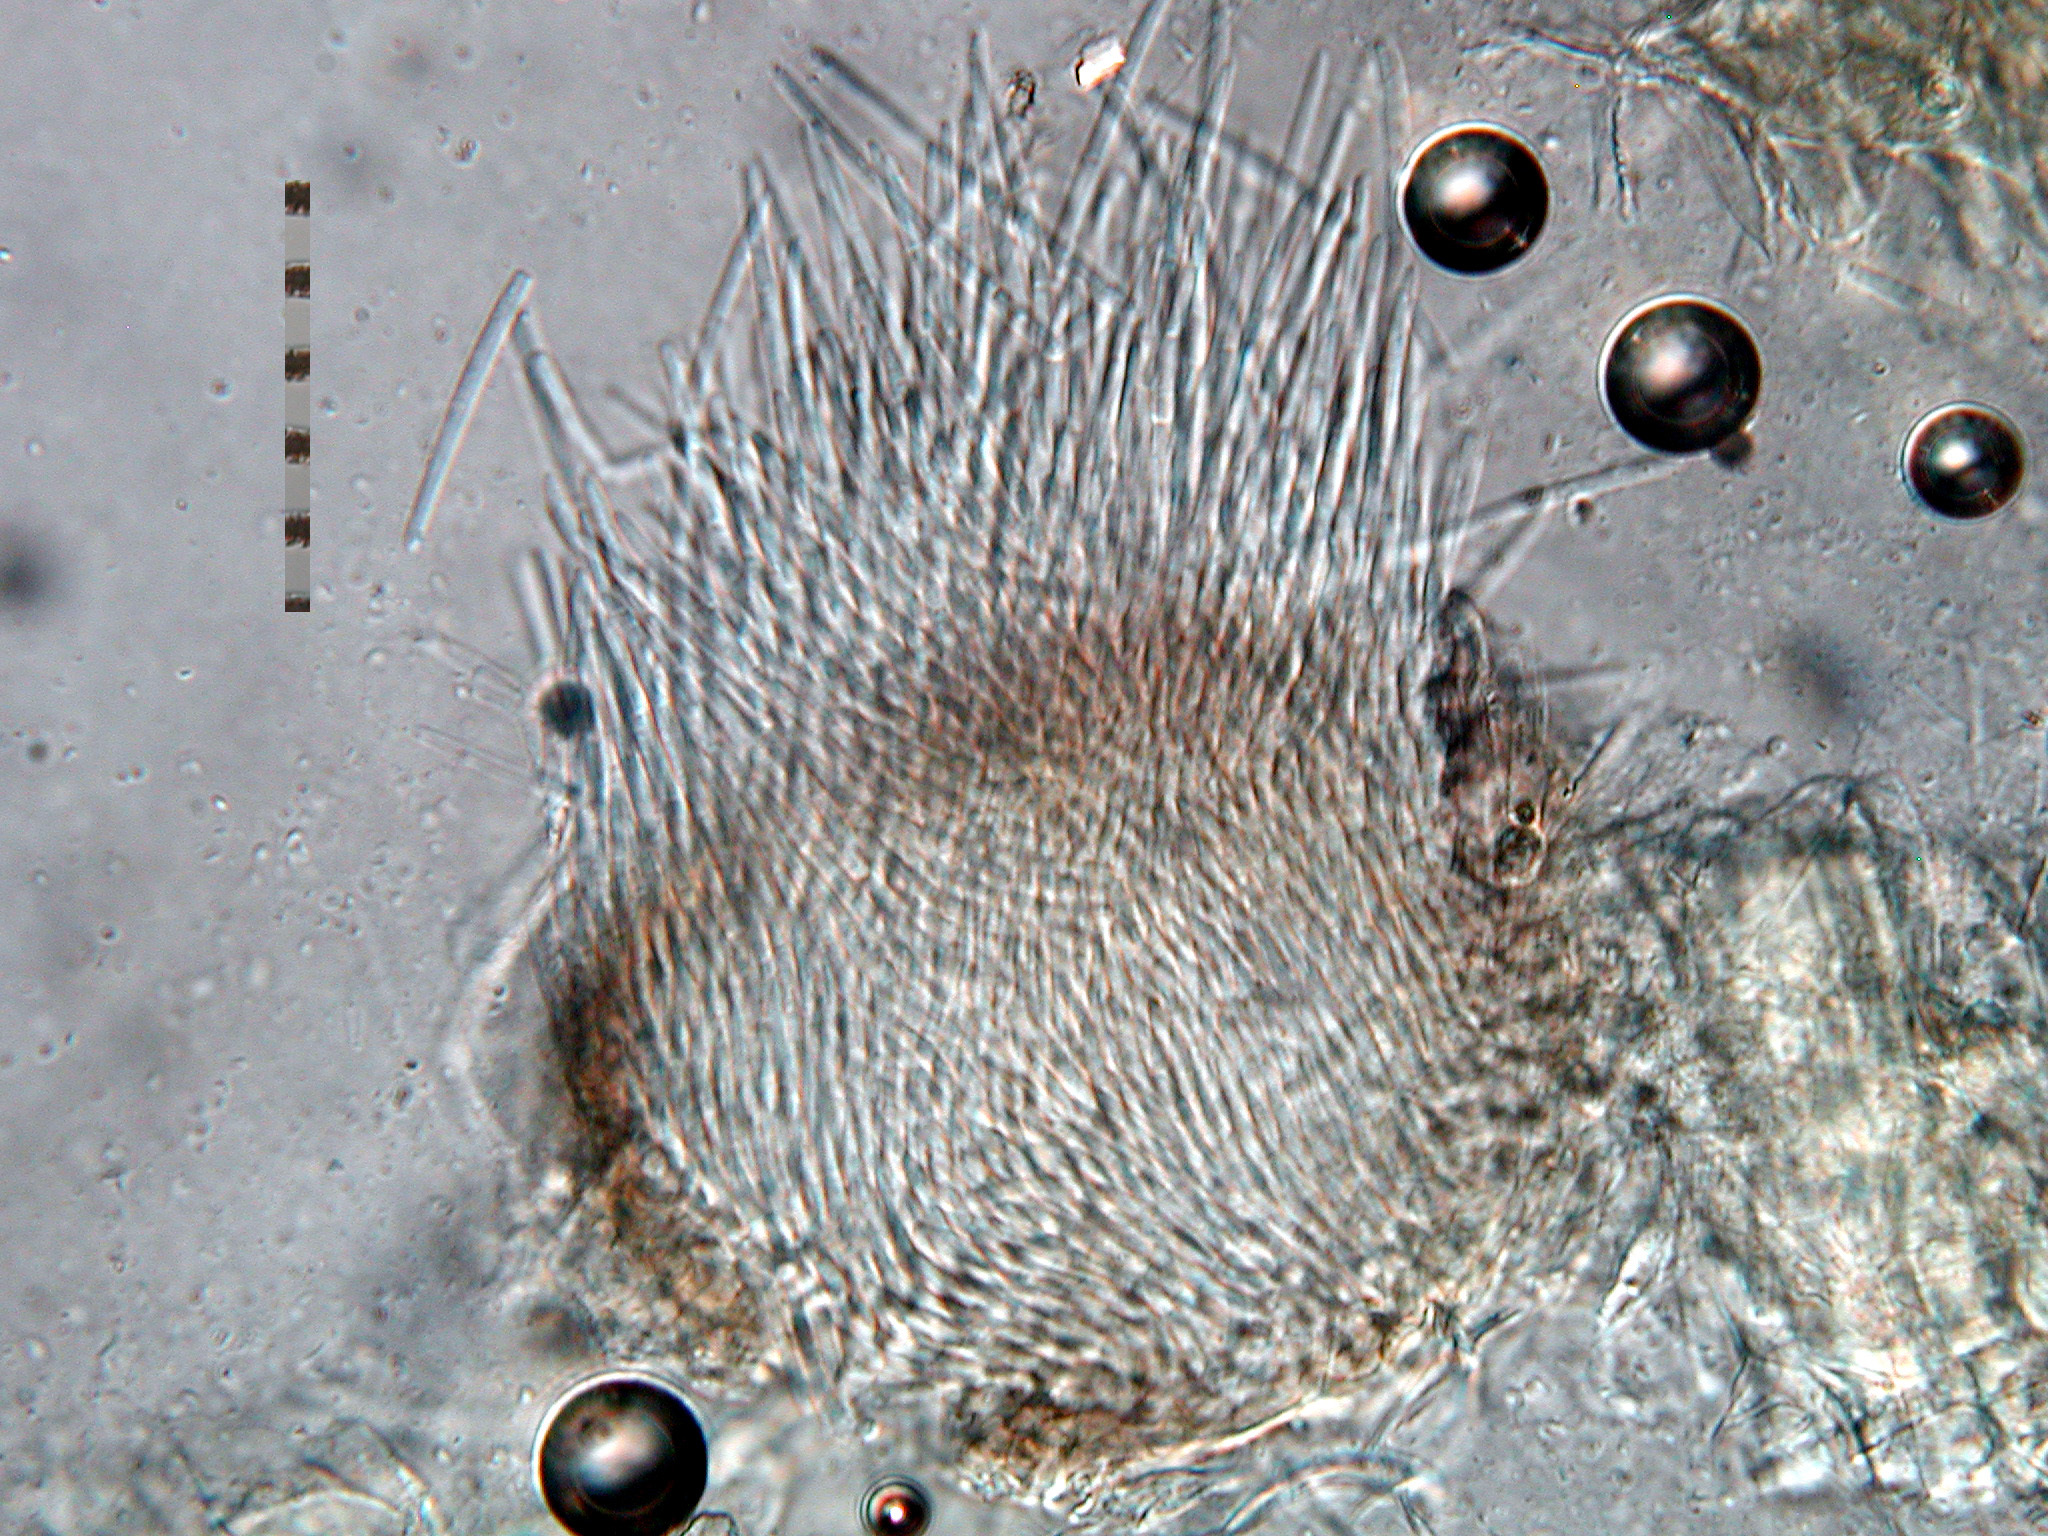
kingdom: Fungi
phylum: Ascomycota
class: Dothideomycetes
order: Mycosphaerellales
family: Mycosphaerellaceae
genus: Caryophylloseptoria
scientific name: Caryophylloseptoria lychnidis
